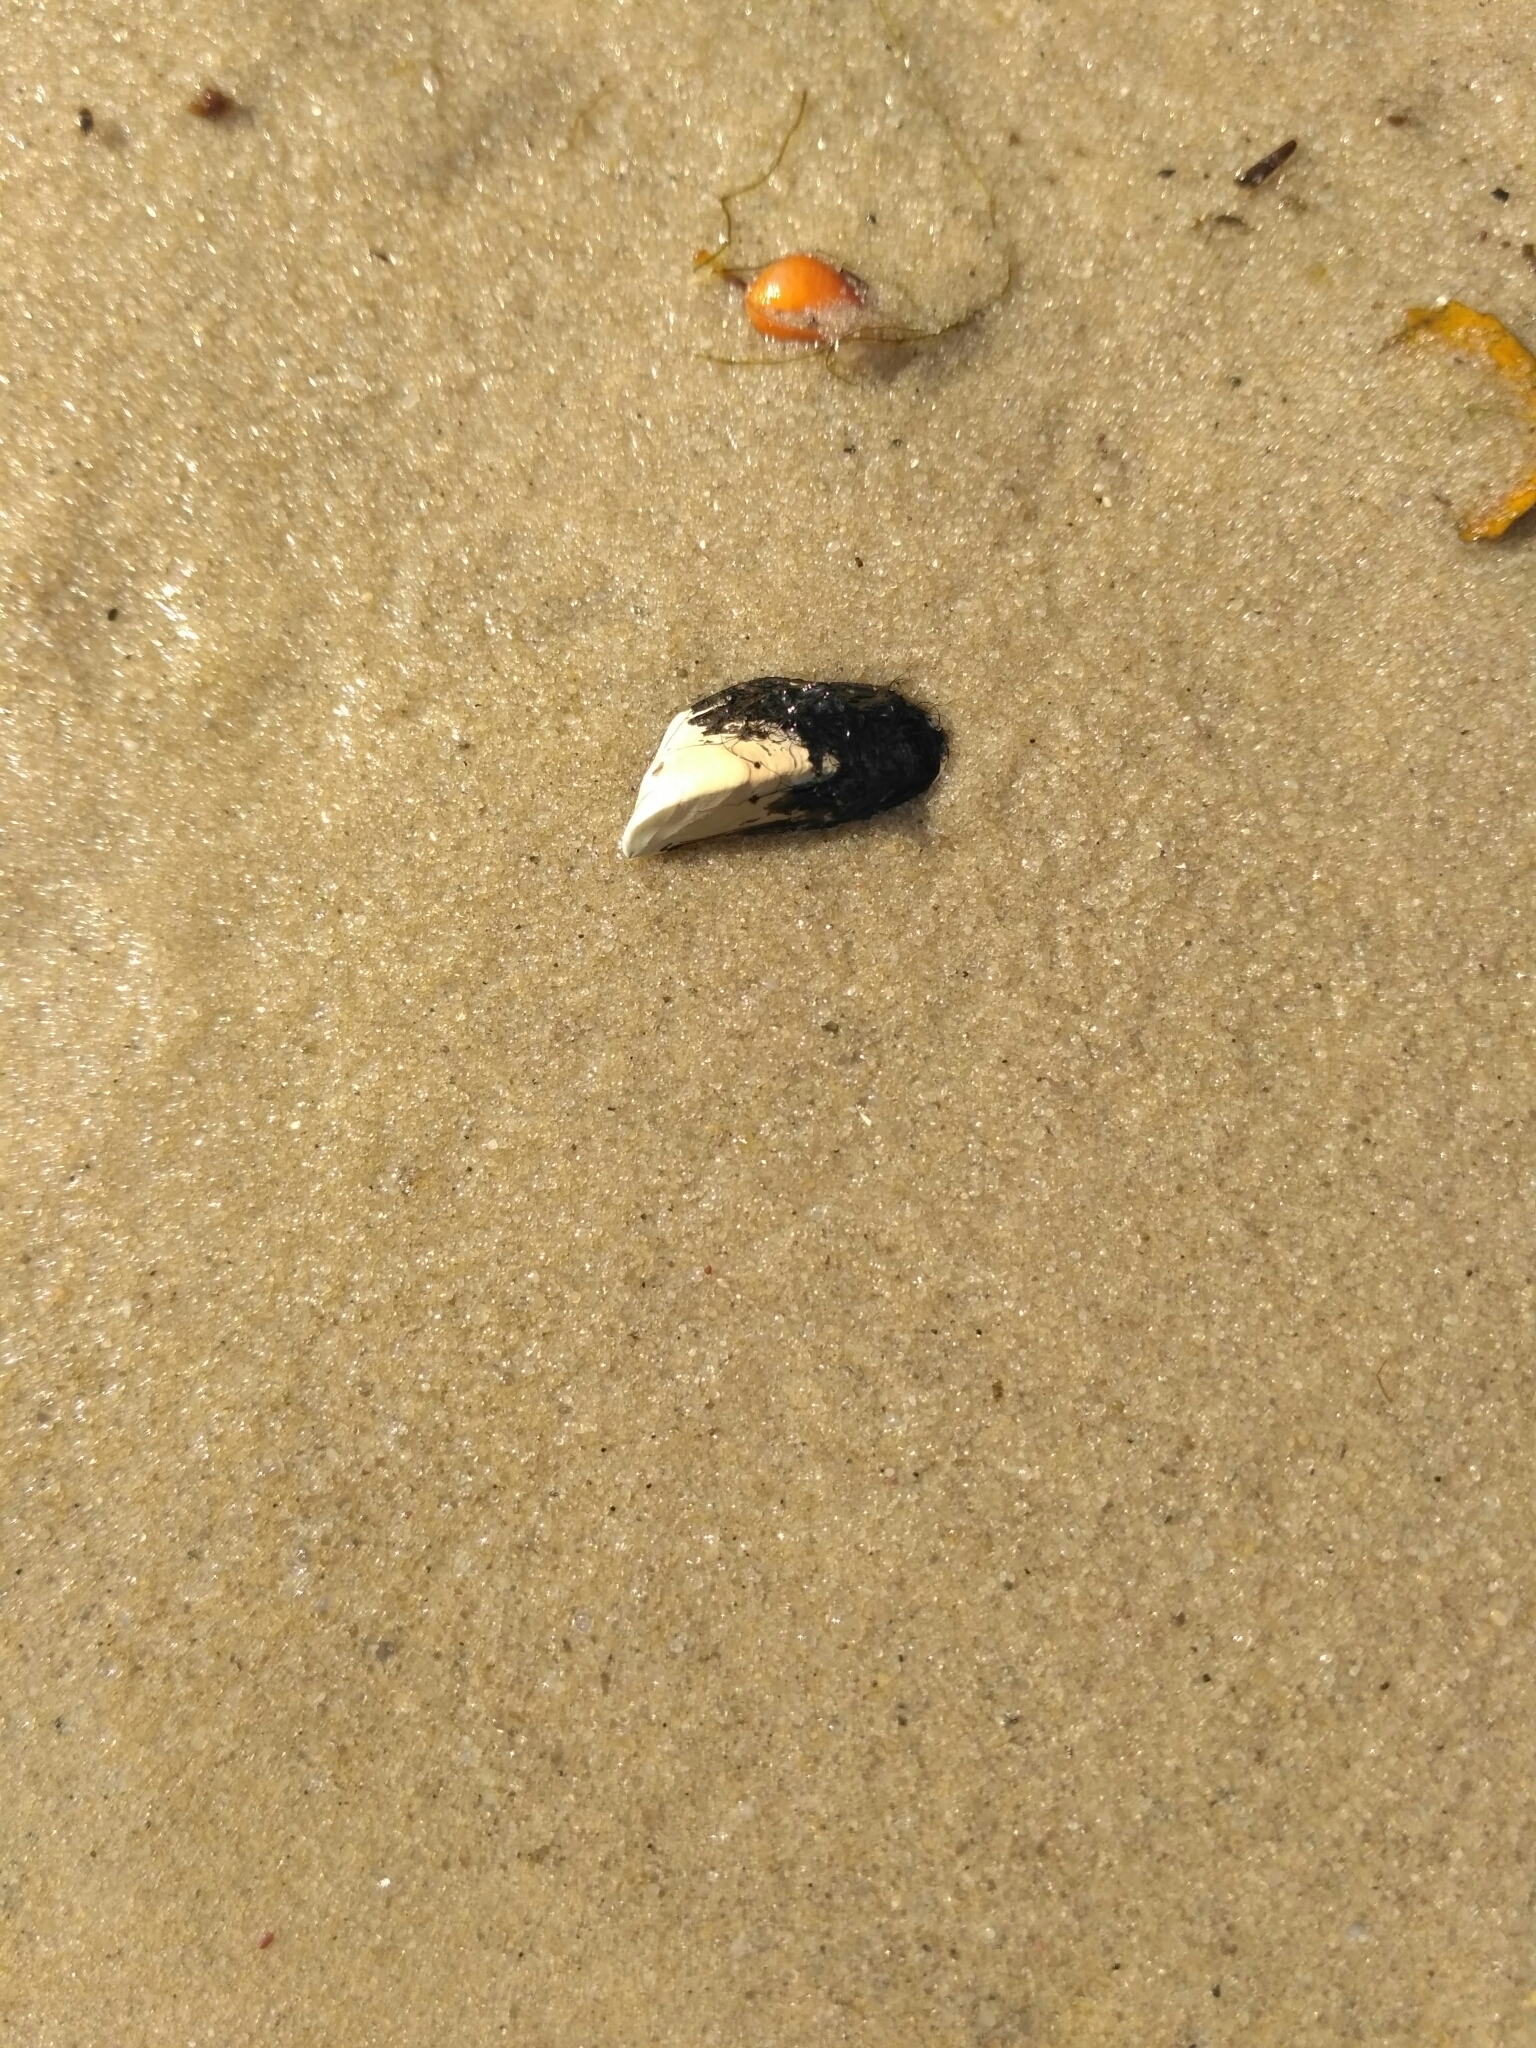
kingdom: Animalia
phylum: Mollusca
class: Bivalvia
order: Myida
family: Dreissenidae
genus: Dreissena
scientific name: Dreissena polymorpha
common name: Zebra mussel
